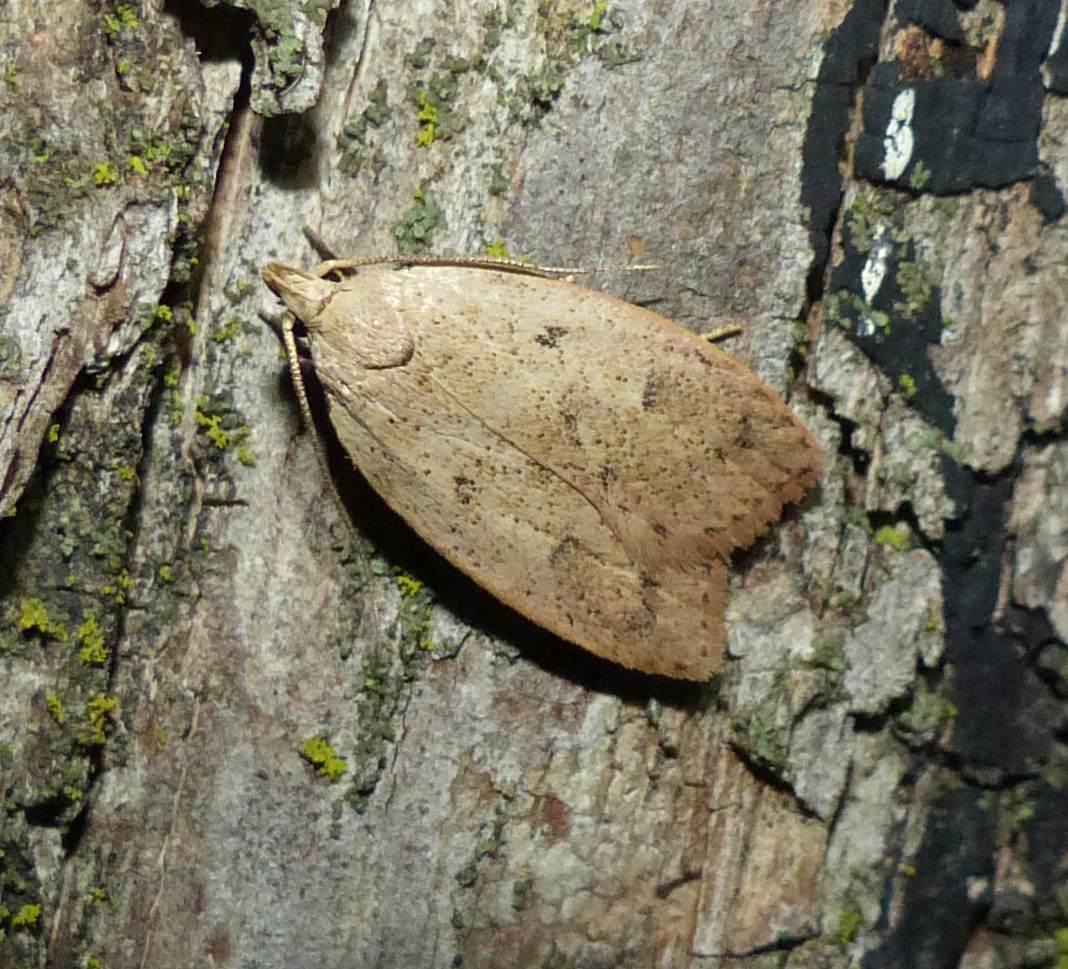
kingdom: Animalia
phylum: Arthropoda
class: Insecta
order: Lepidoptera
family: Peleopodidae
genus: Machimia
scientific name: Machimia tentoriferella
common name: Gold-striped leaftier moth
